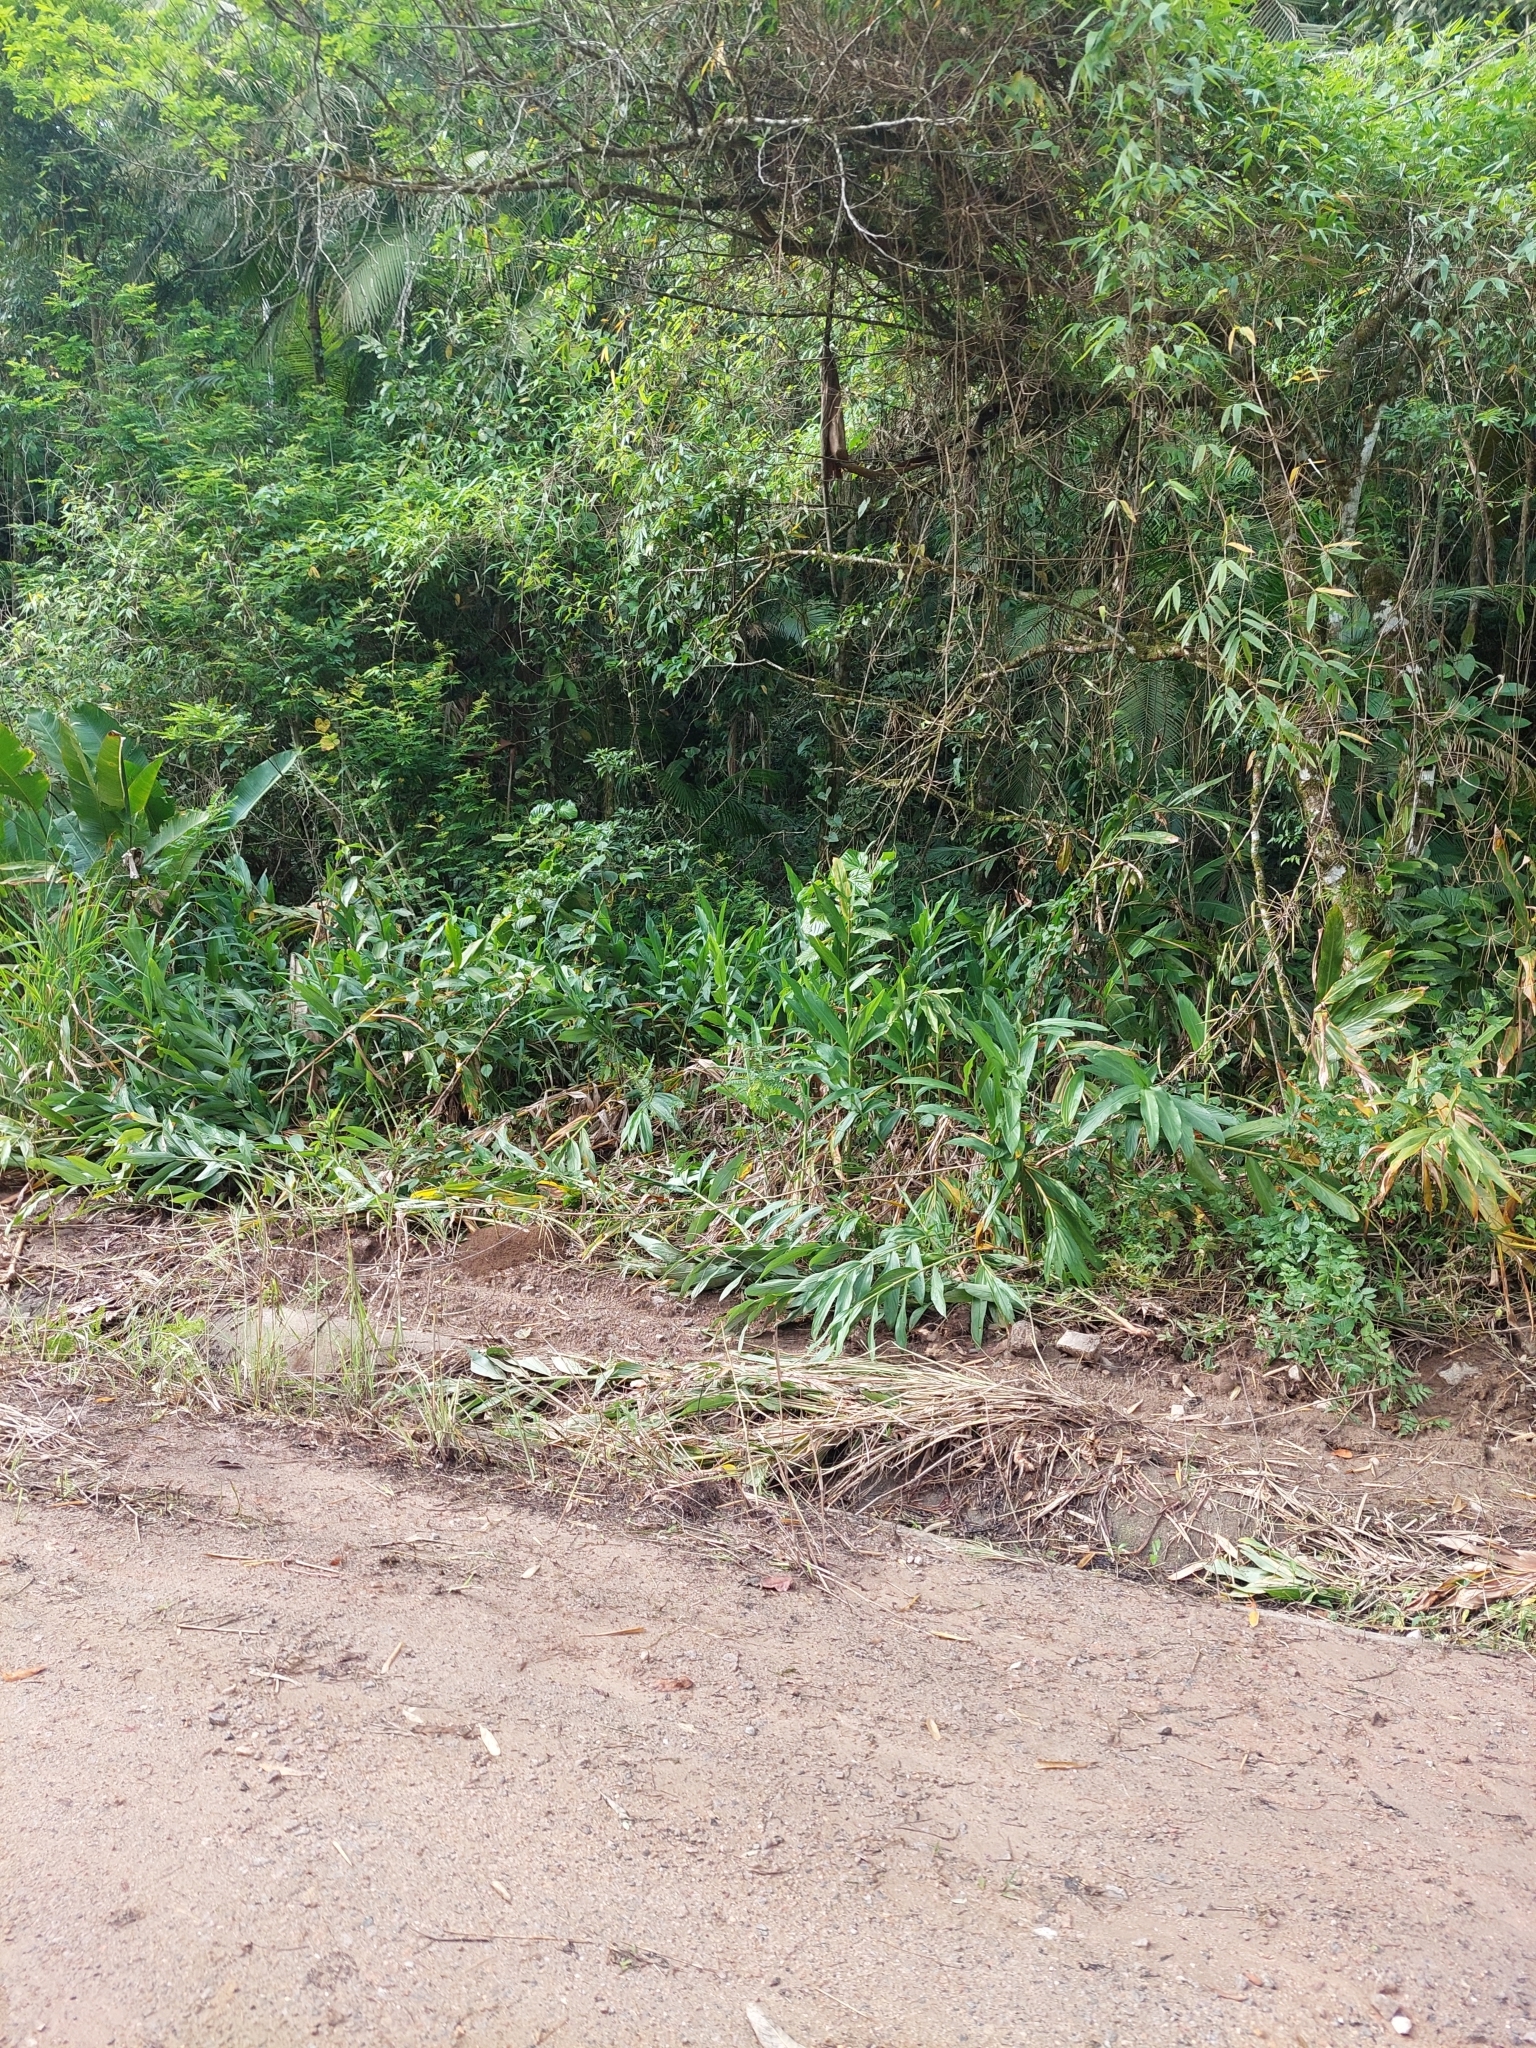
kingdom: Plantae
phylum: Tracheophyta
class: Liliopsida
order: Zingiberales
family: Zingiberaceae
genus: Hedychium
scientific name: Hedychium coronarium
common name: White garland-lily
